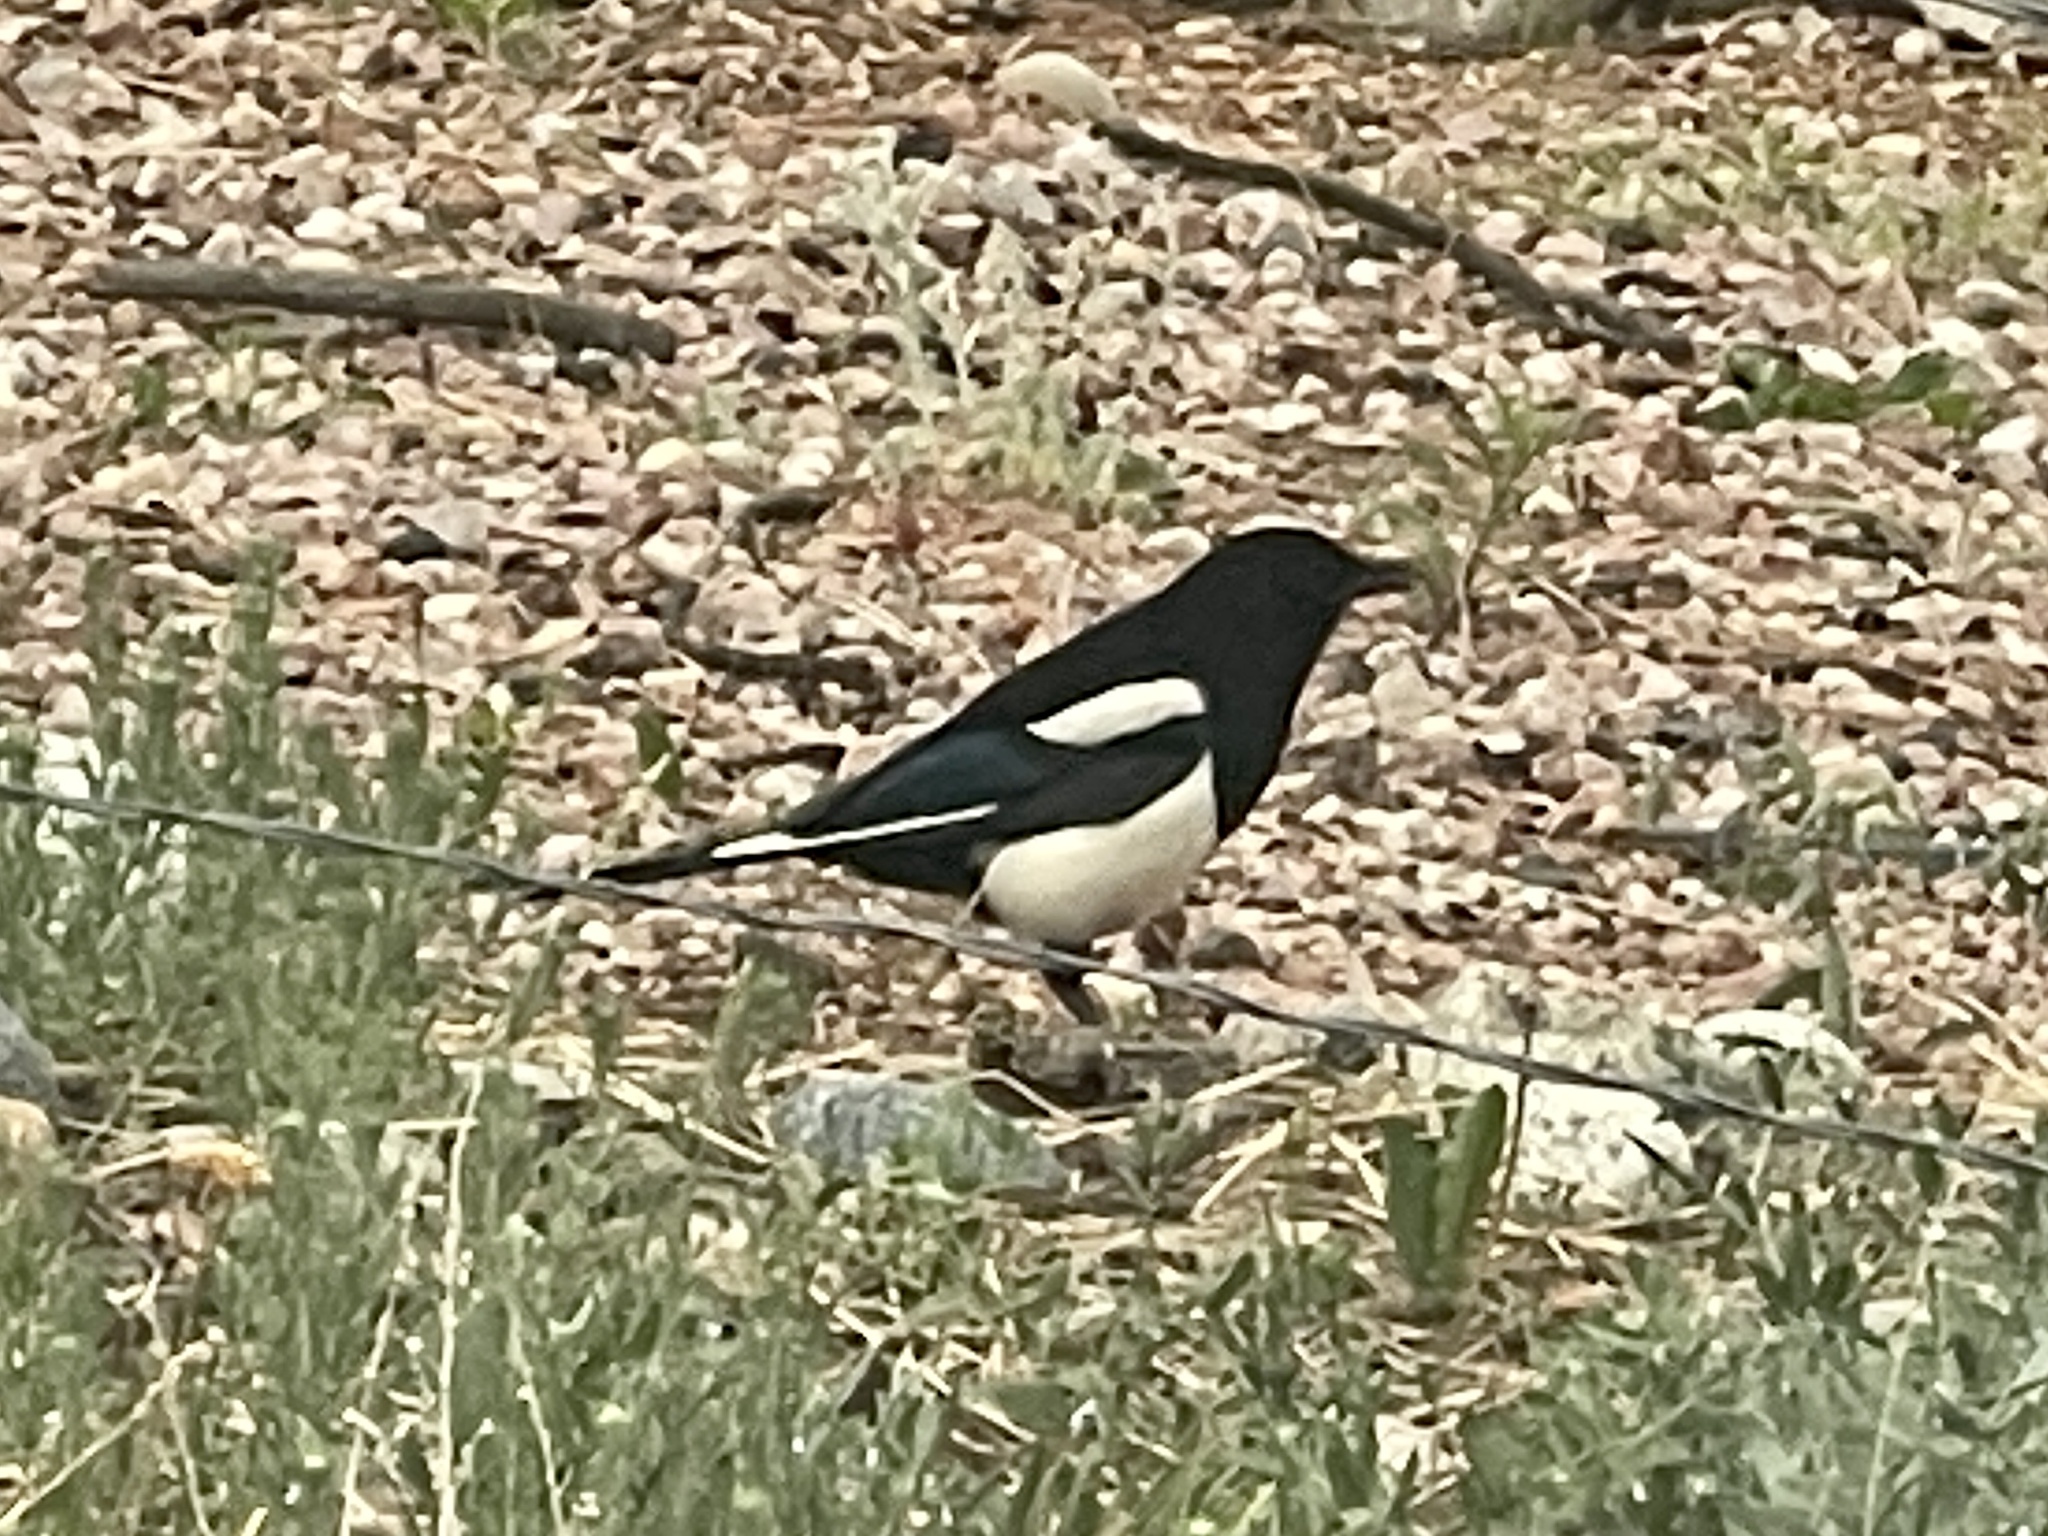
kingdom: Animalia
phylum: Chordata
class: Aves
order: Passeriformes
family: Corvidae
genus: Pica
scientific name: Pica hudsonia
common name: Black-billed magpie
